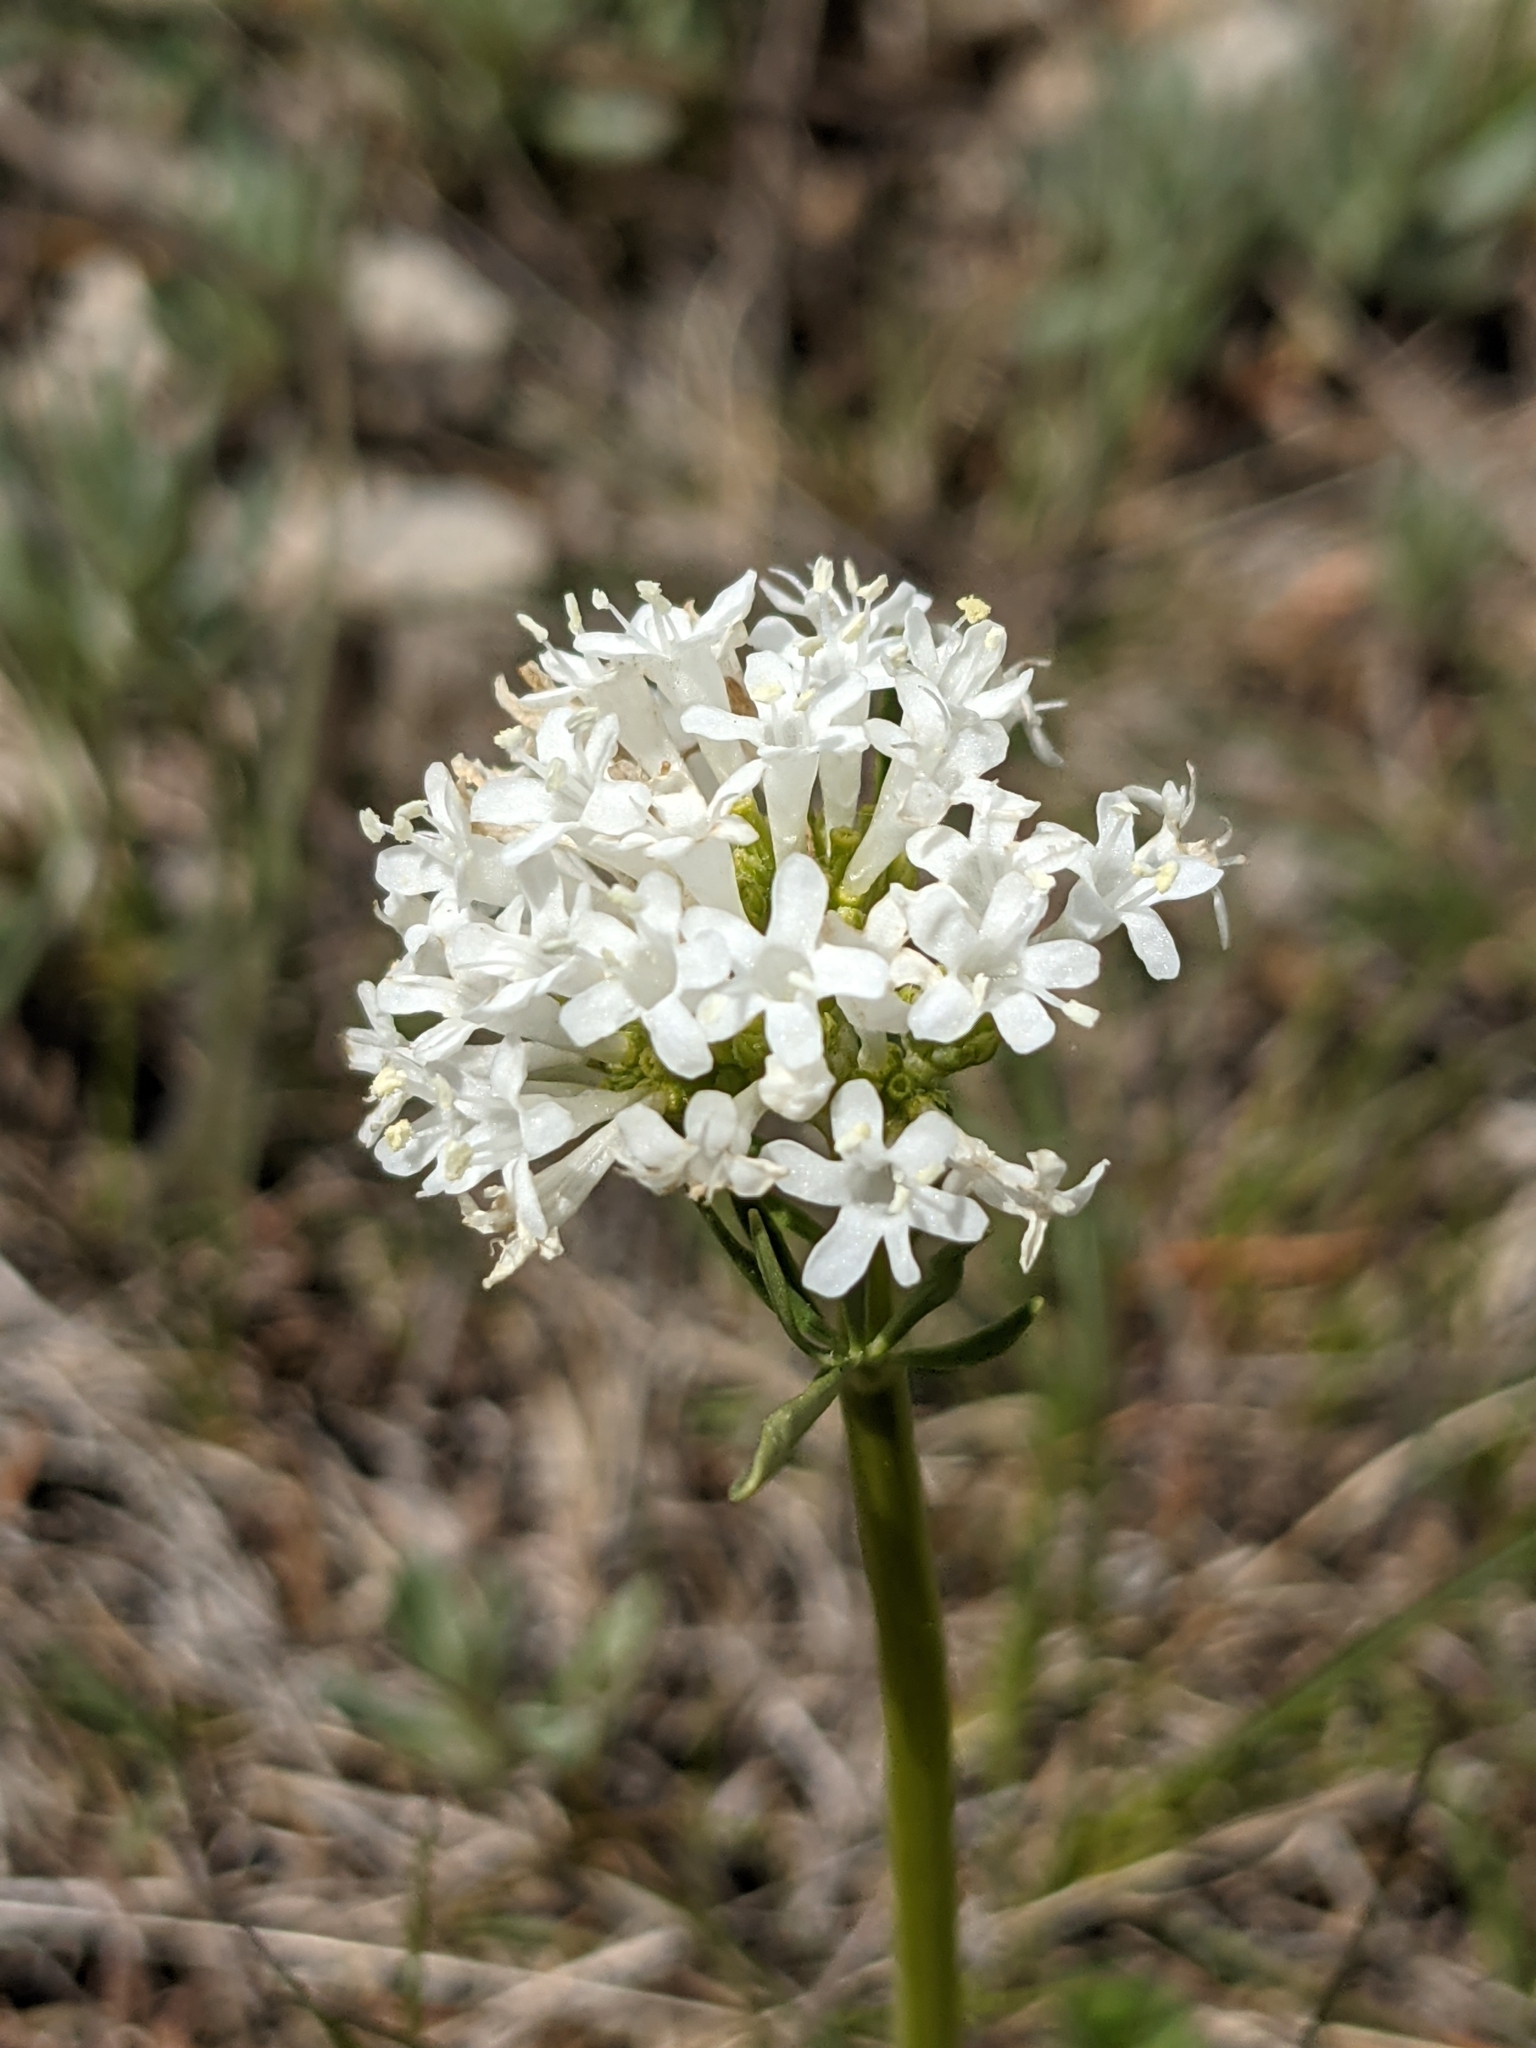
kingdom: Plantae
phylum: Tracheophyta
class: Magnoliopsida
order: Dipsacales
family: Caprifoliaceae
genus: Valeriana
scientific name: Valeriana tuberosa
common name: Tuberous valerian
